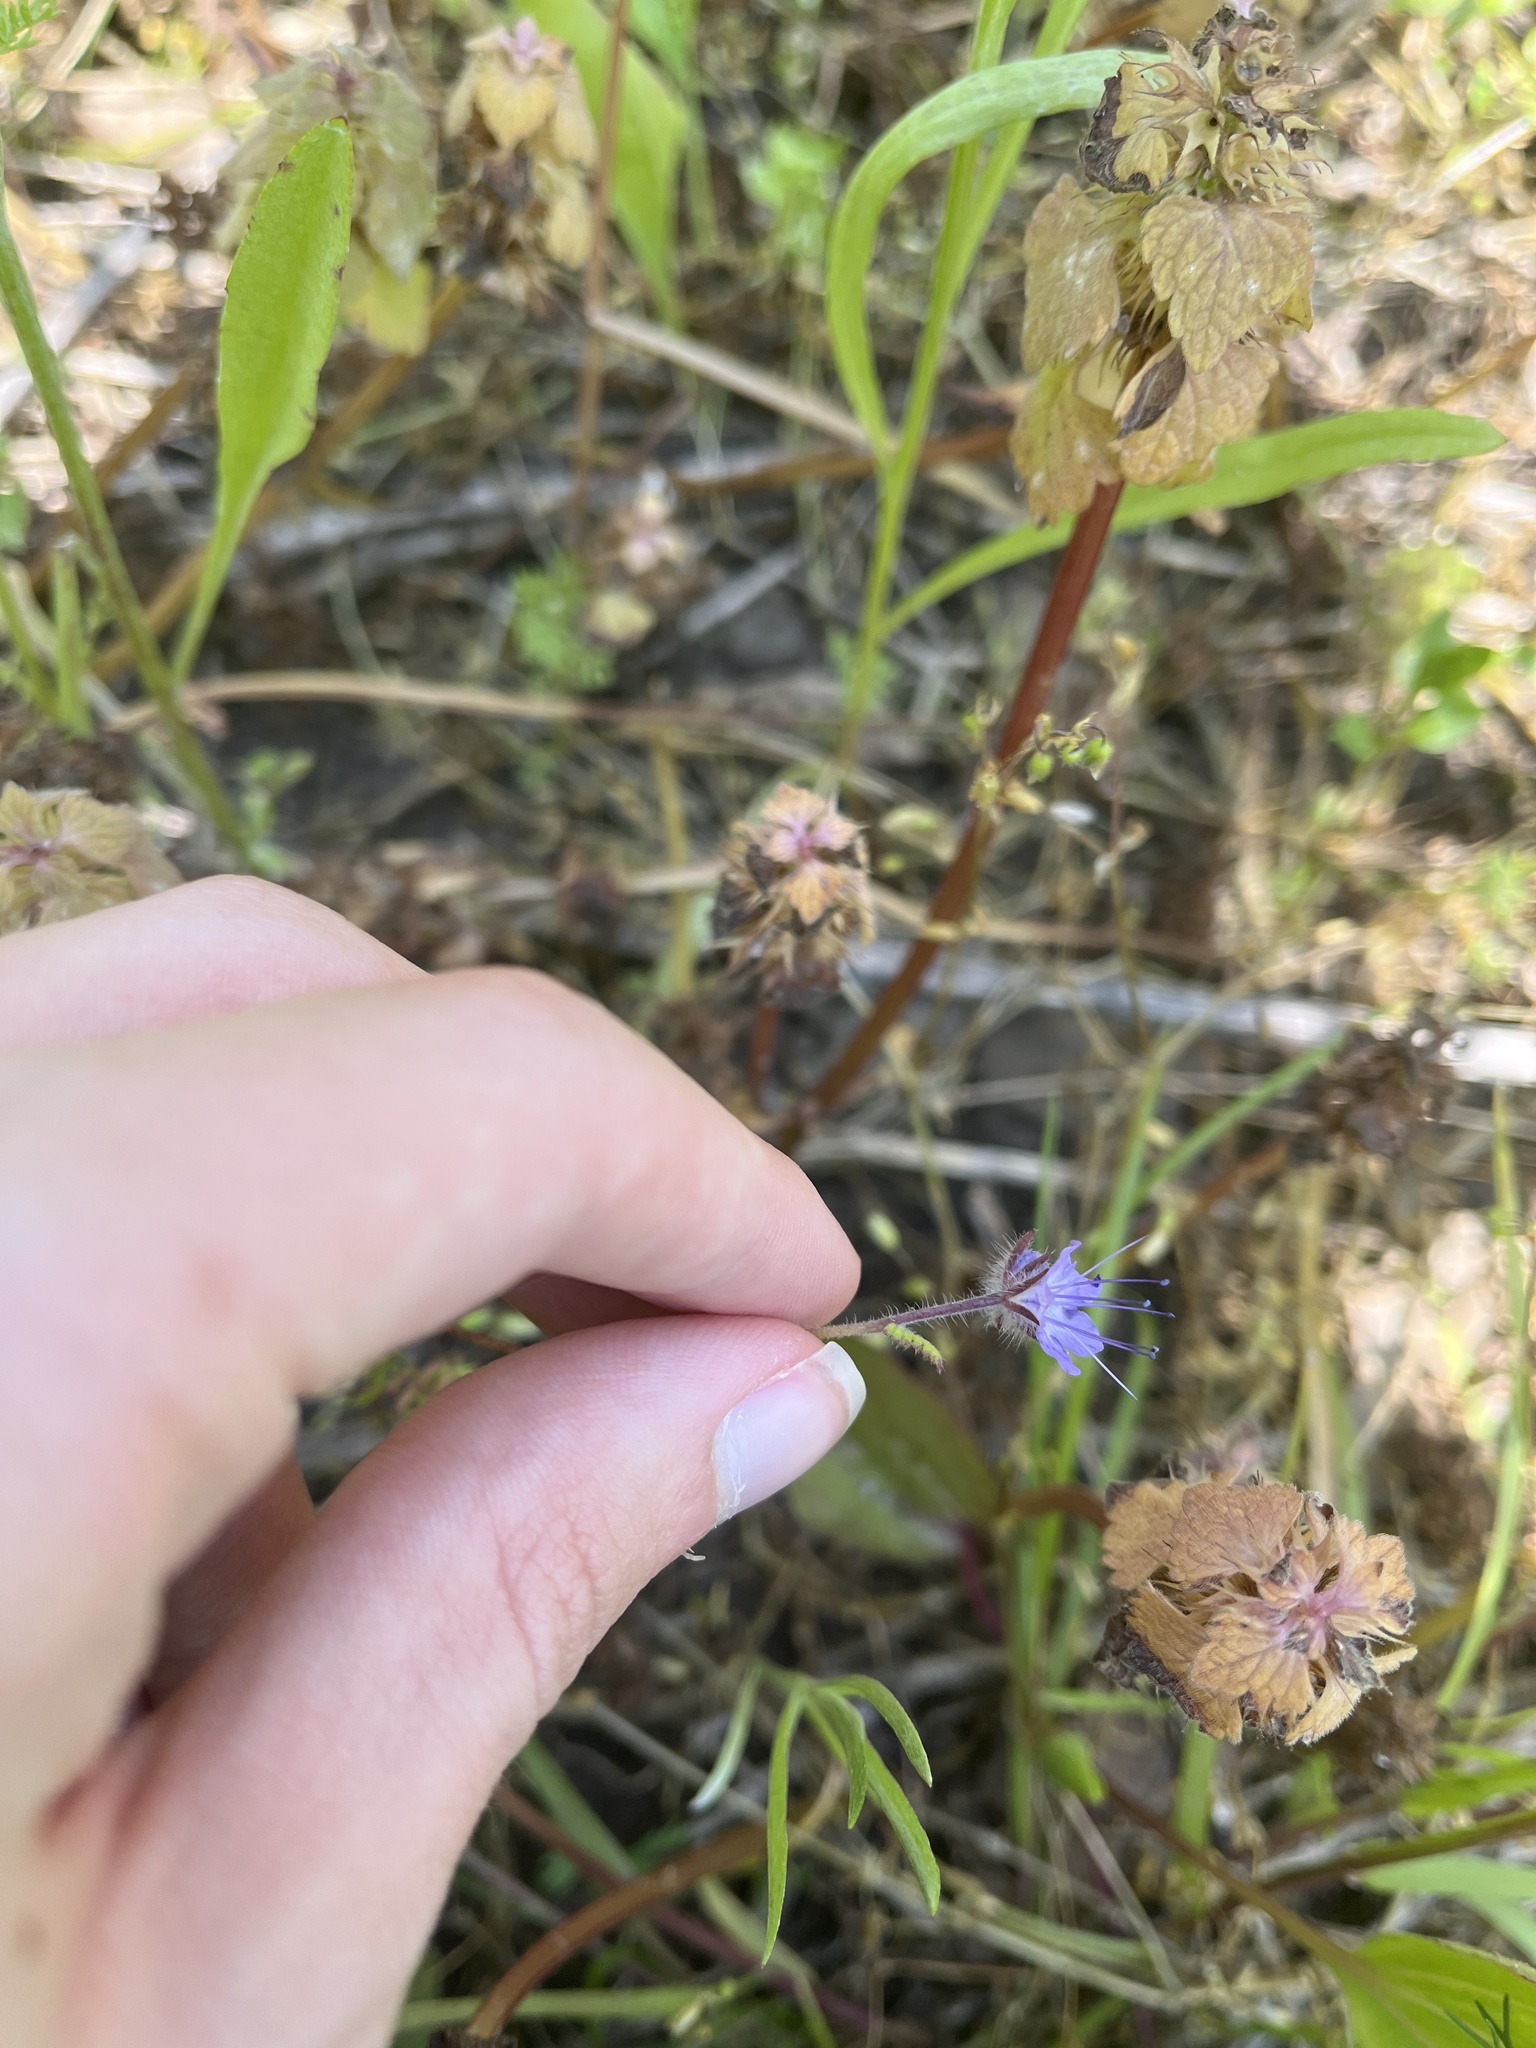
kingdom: Plantae
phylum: Tracheophyta
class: Magnoliopsida
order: Boraginales
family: Hydrophyllaceae
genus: Phacelia
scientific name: Phacelia tanacetifolia
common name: Phacelia
